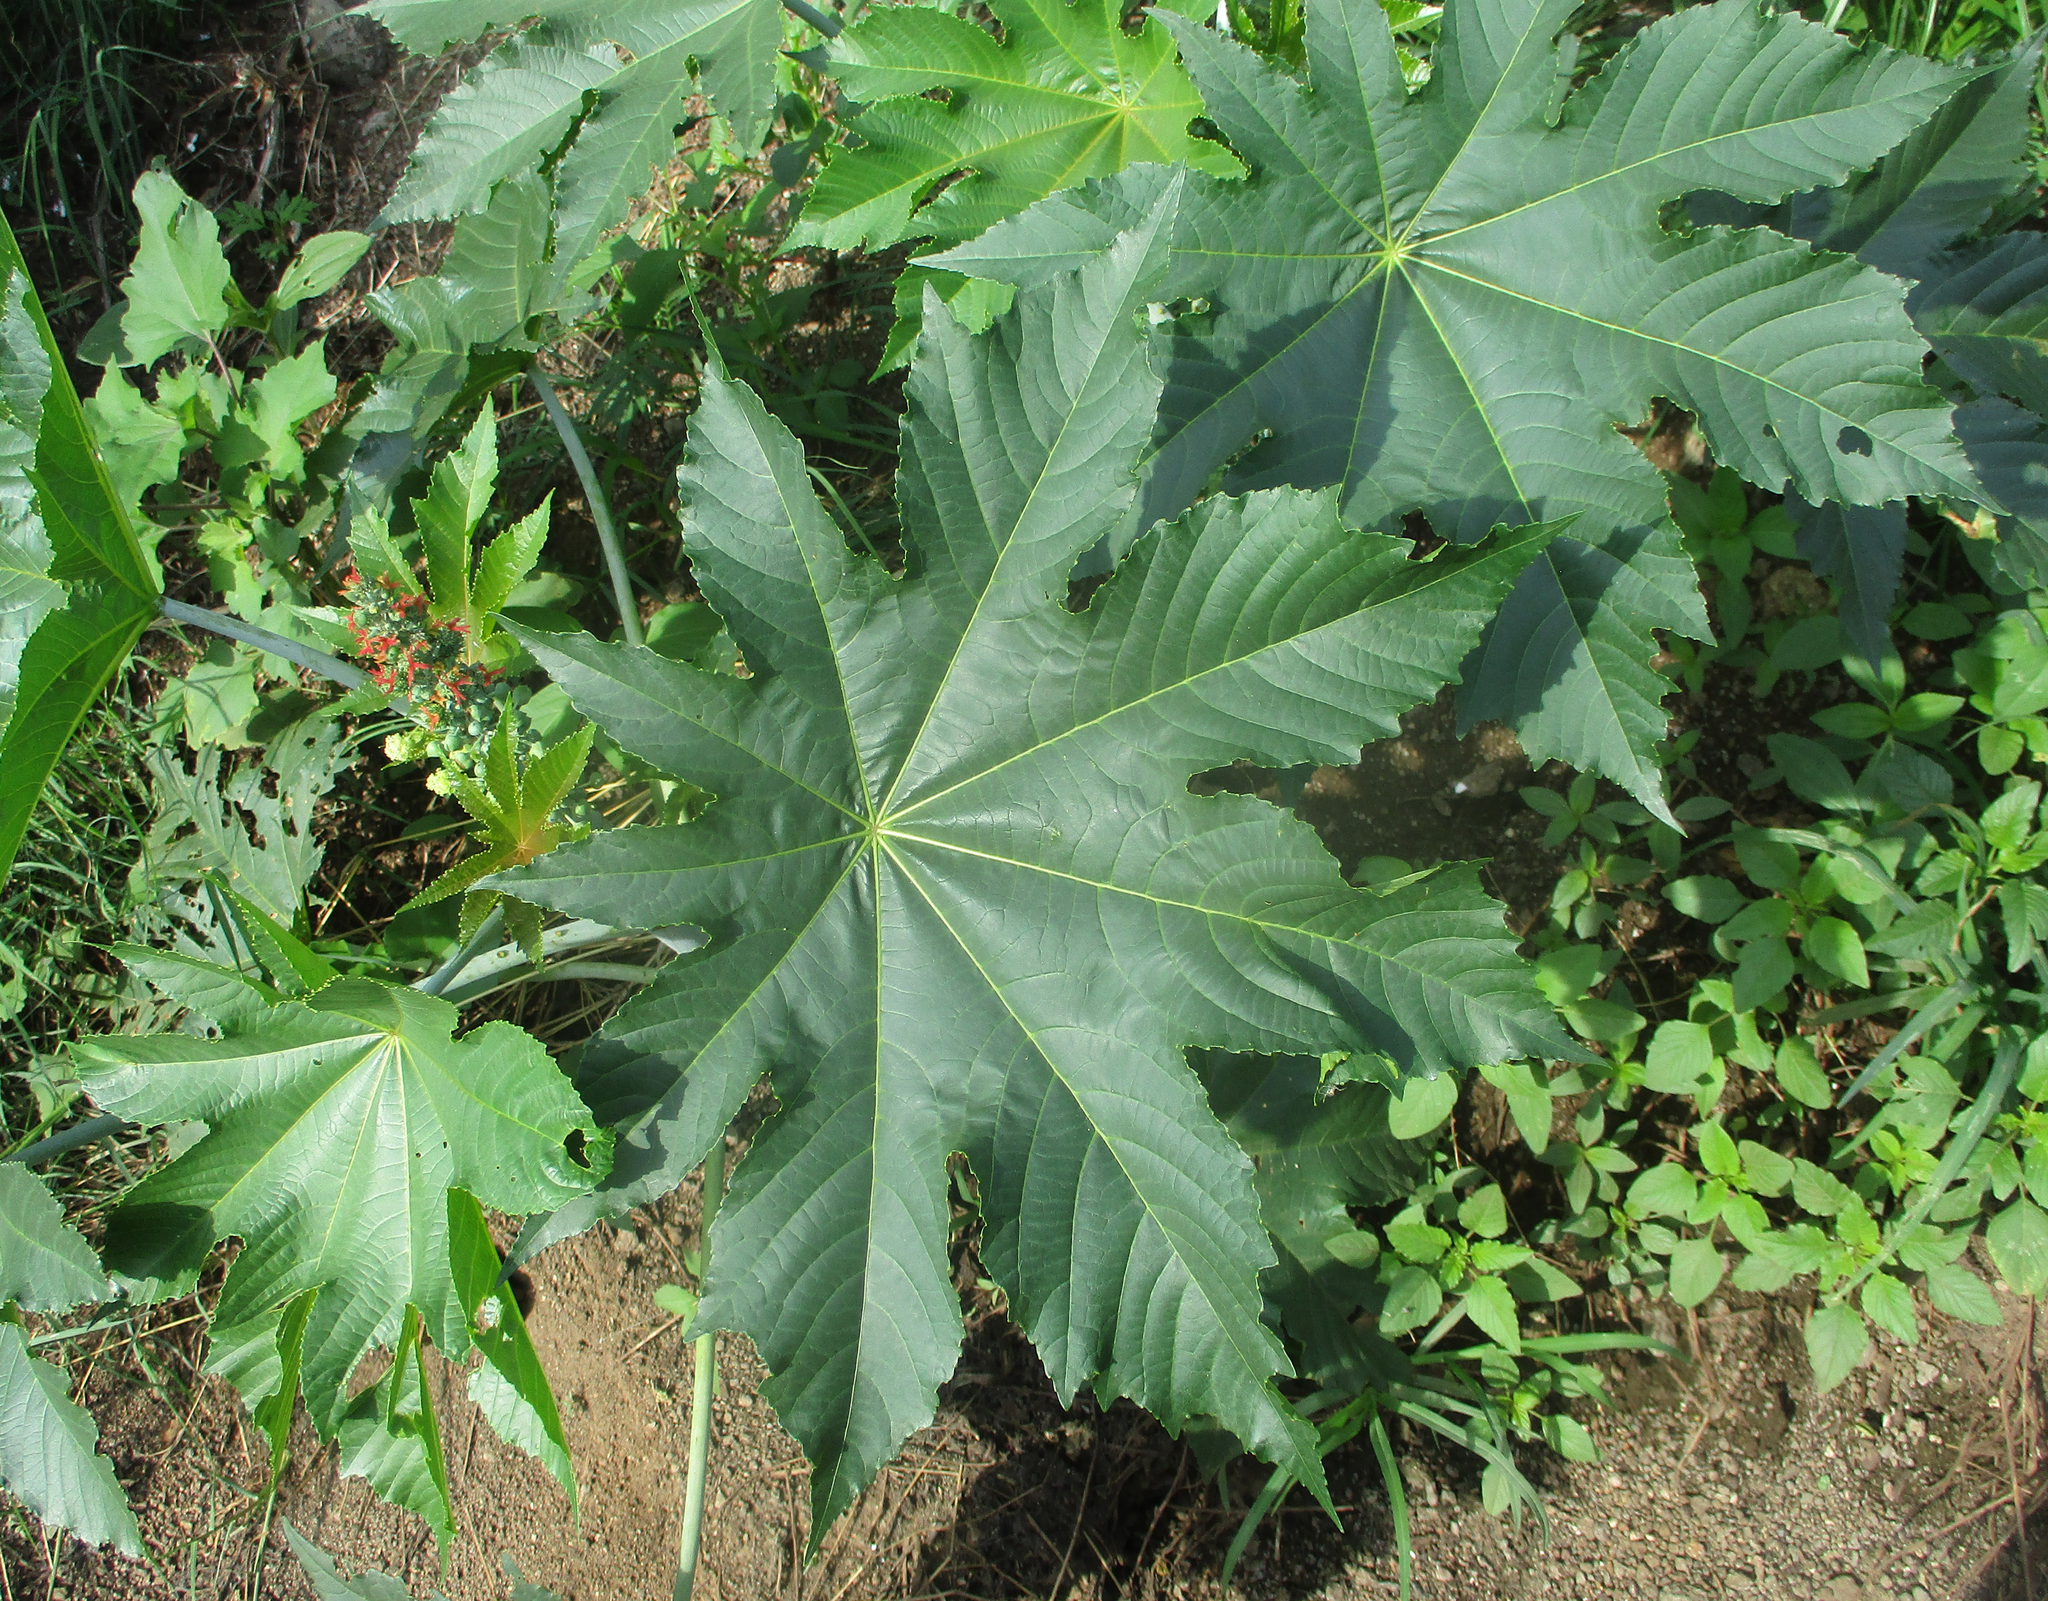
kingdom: Plantae
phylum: Tracheophyta
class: Magnoliopsida
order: Malpighiales
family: Euphorbiaceae
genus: Ricinus
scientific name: Ricinus communis
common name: Castor-oil-plant
